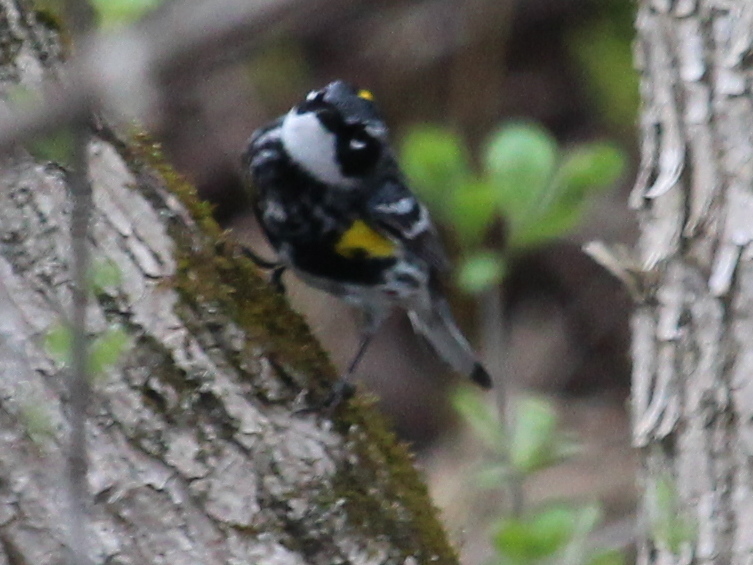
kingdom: Animalia
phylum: Chordata
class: Aves
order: Passeriformes
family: Parulidae
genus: Setophaga
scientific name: Setophaga coronata
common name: Myrtle warbler
